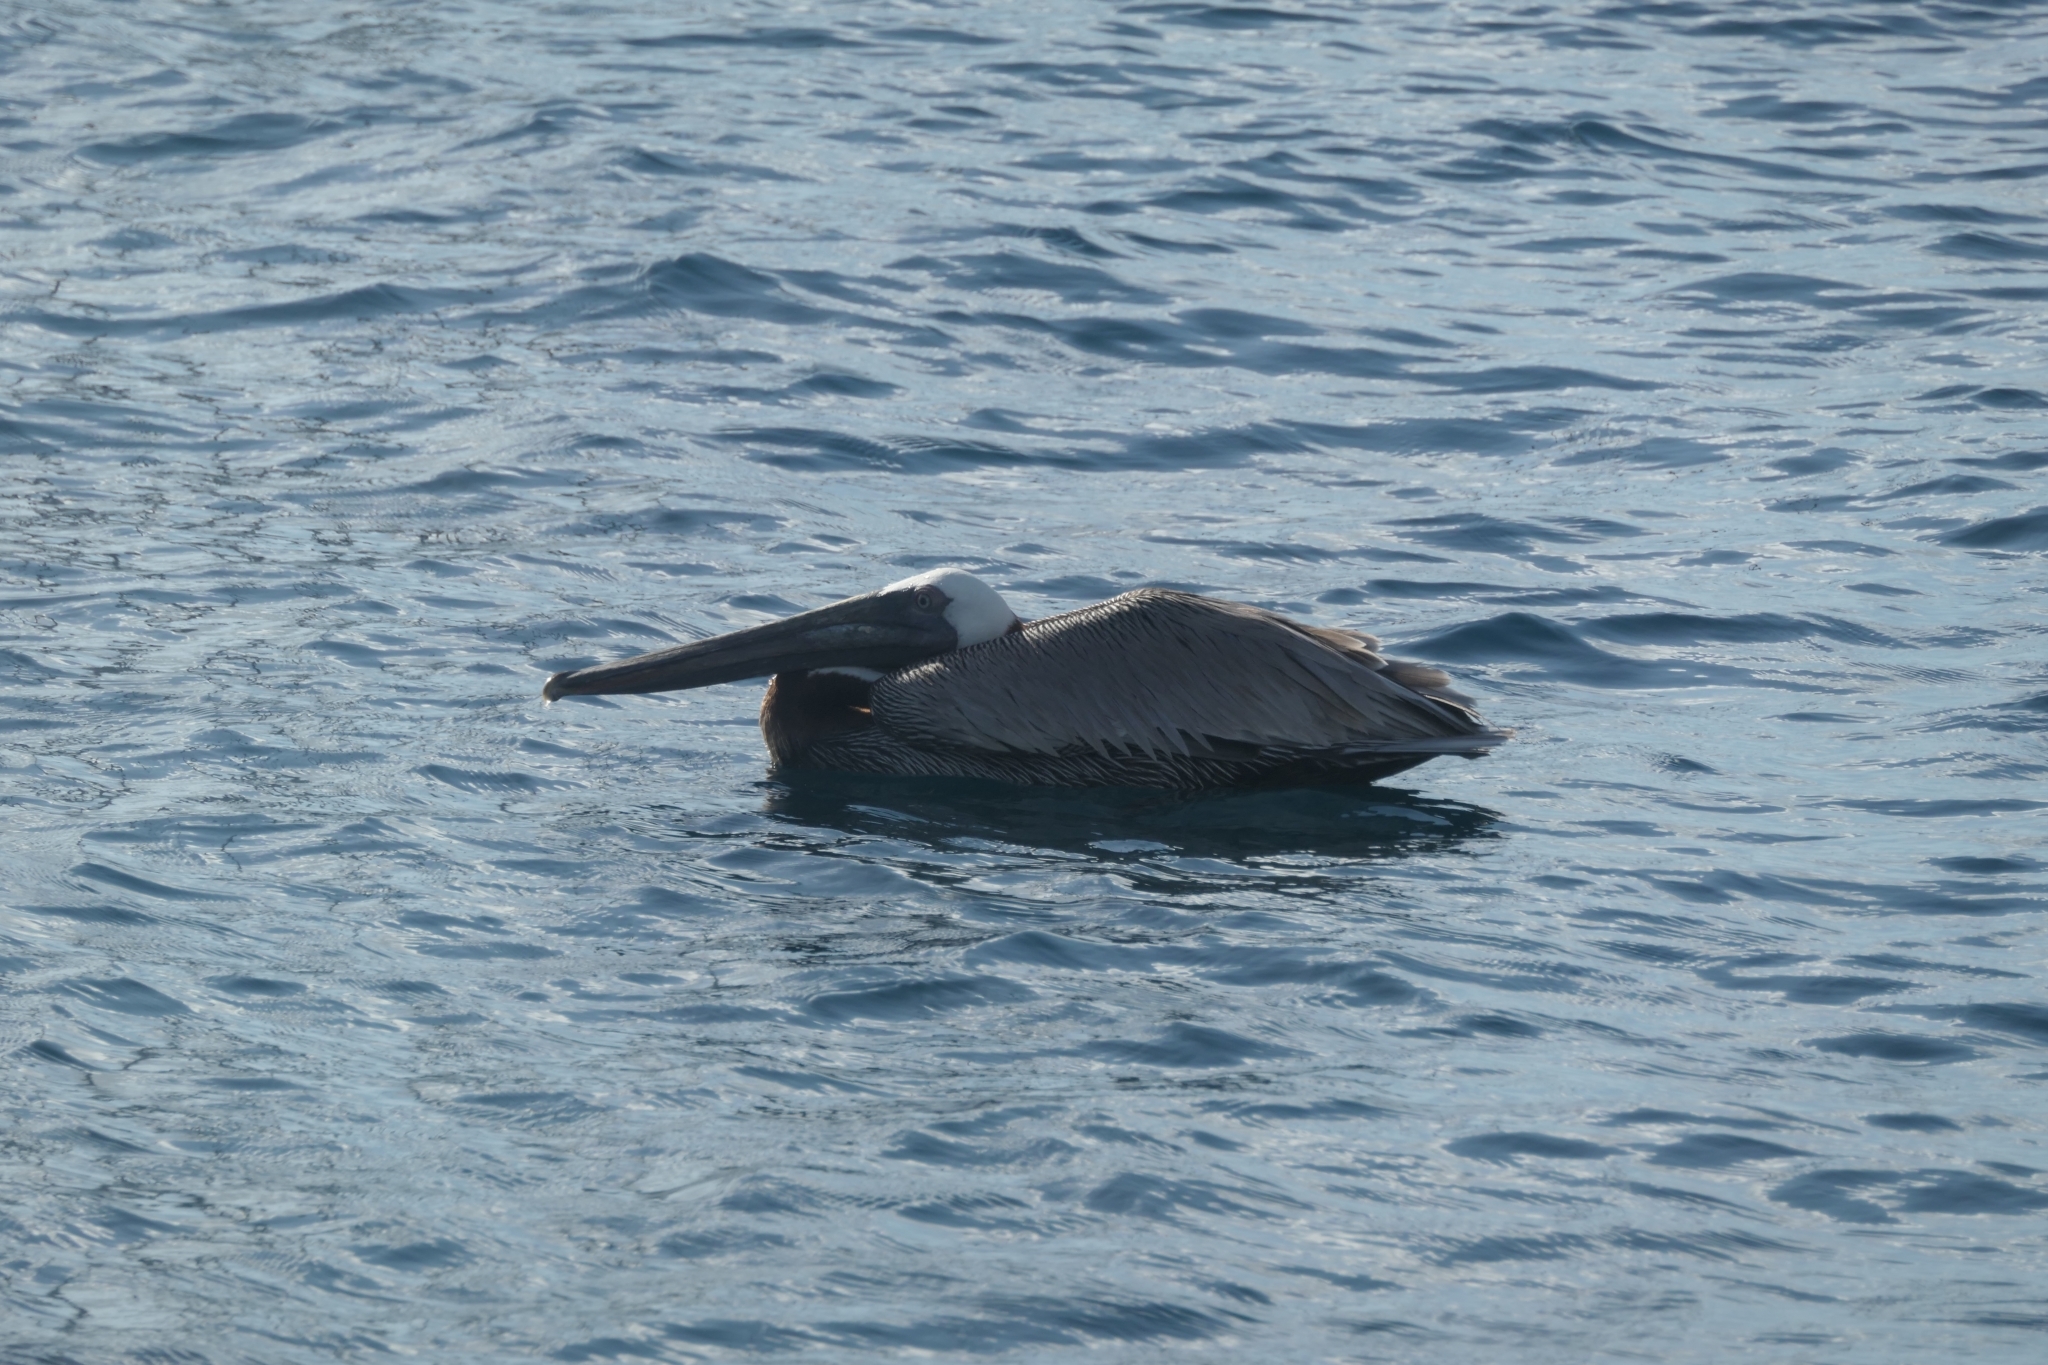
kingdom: Animalia
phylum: Chordata
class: Aves
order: Pelecaniformes
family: Pelecanidae
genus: Pelecanus
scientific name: Pelecanus occidentalis
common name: Brown pelican
